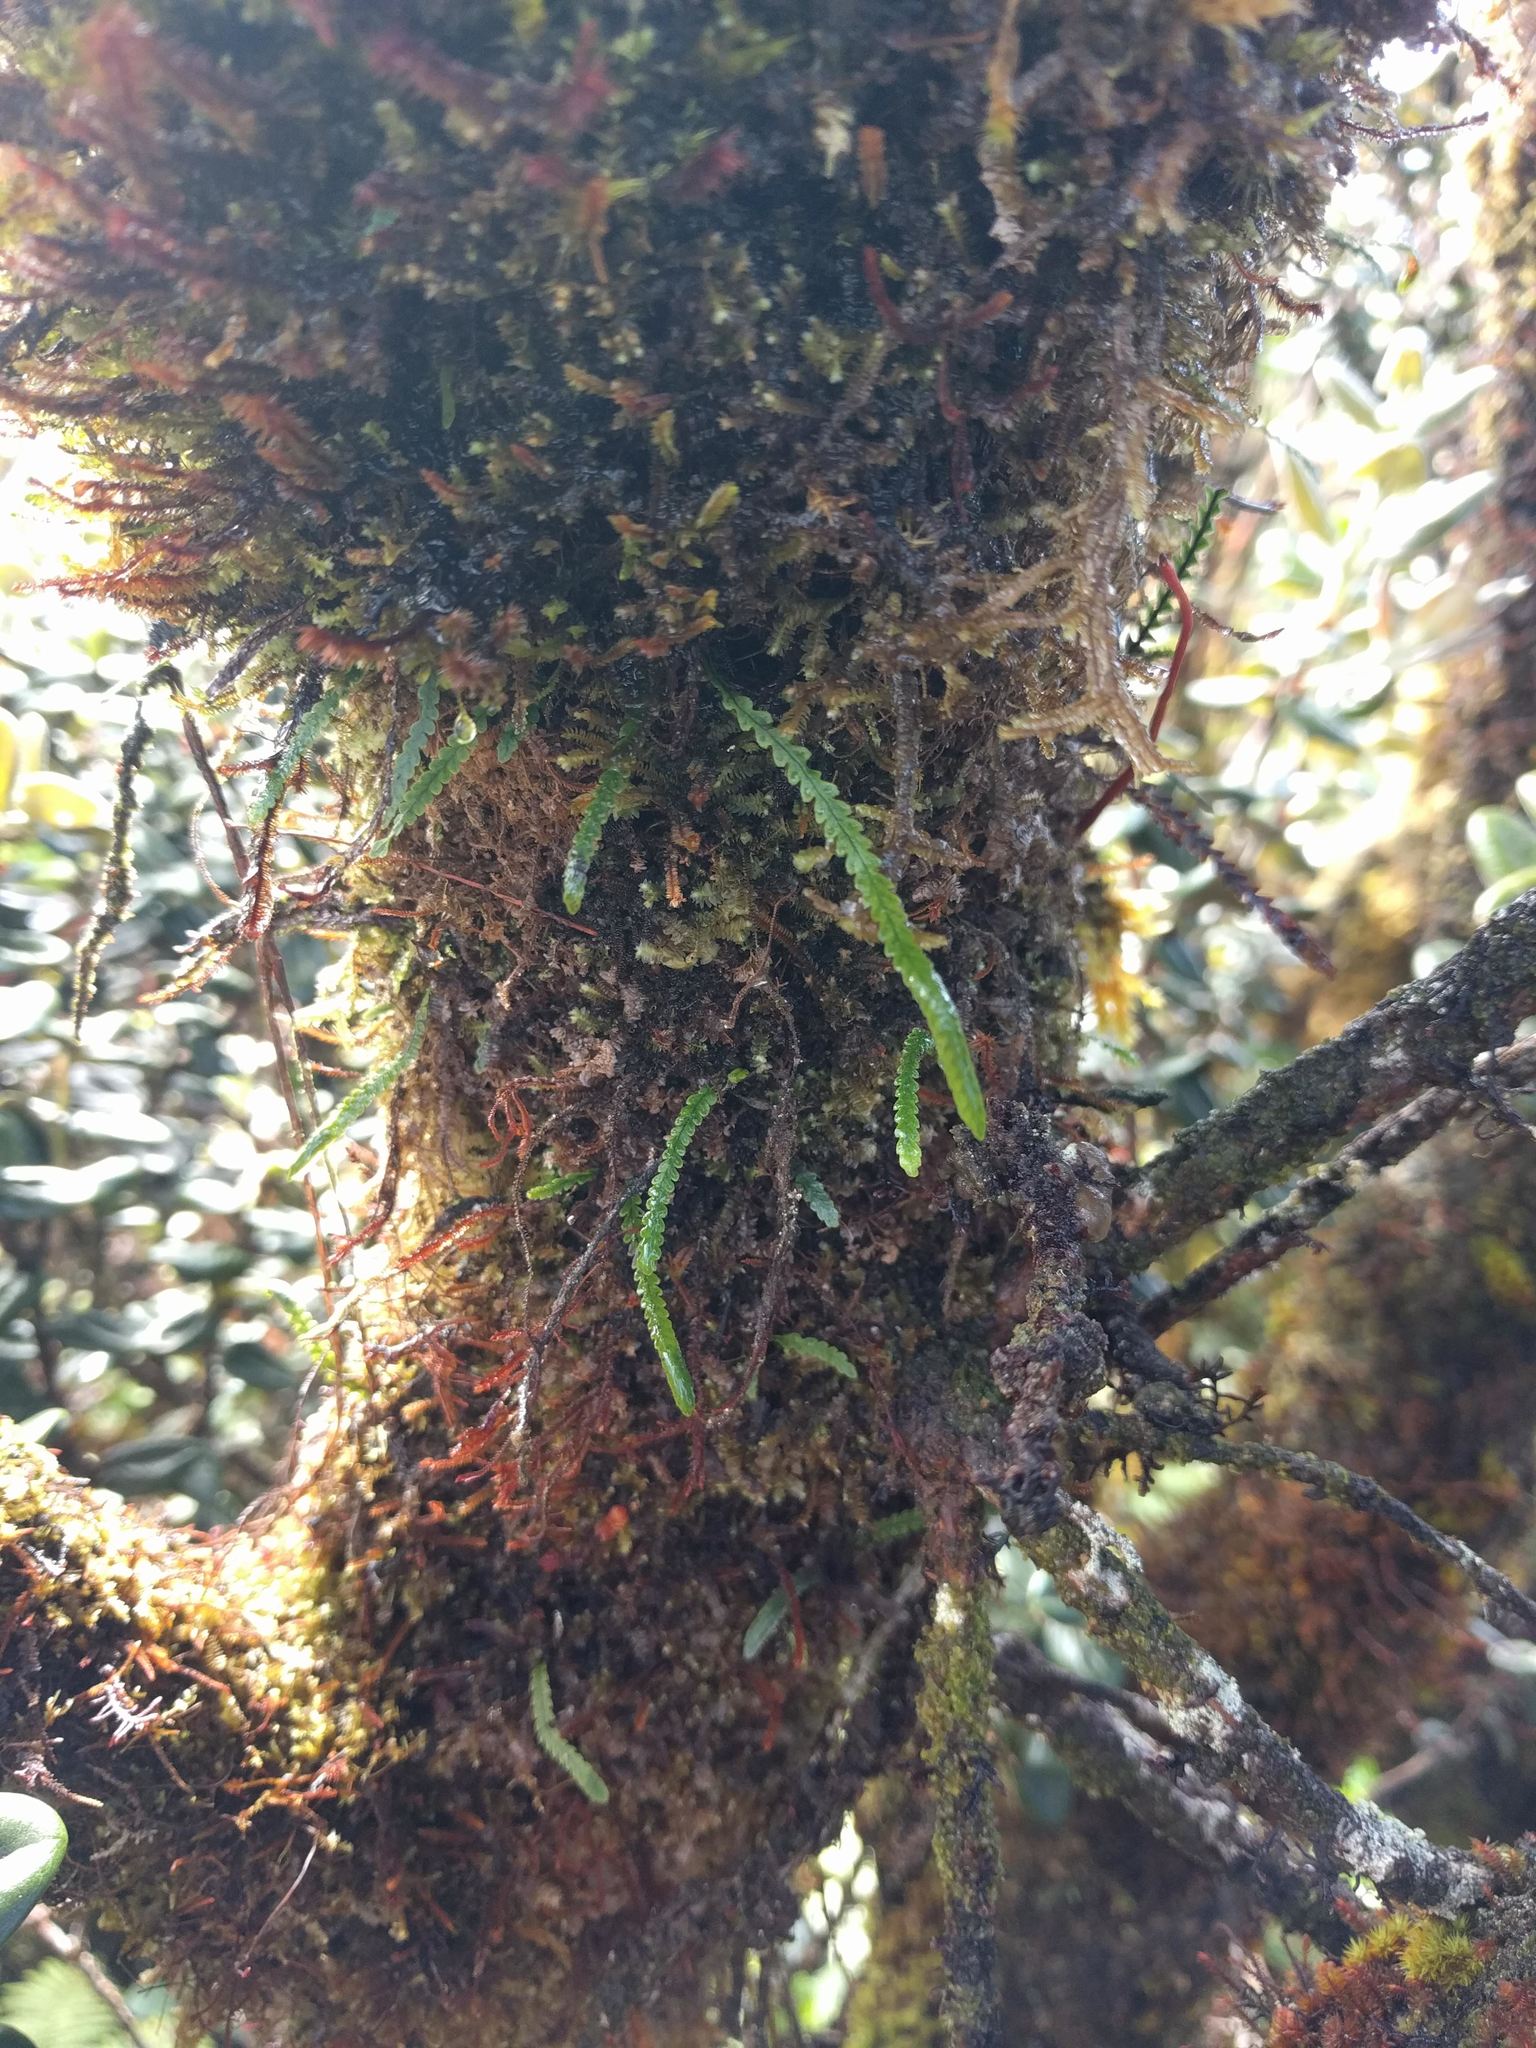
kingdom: Plantae
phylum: Tracheophyta
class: Polypodiopsida
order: Polypodiales
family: Polypodiaceae
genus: Stenogrammitis
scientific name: Stenogrammitis saffordii
